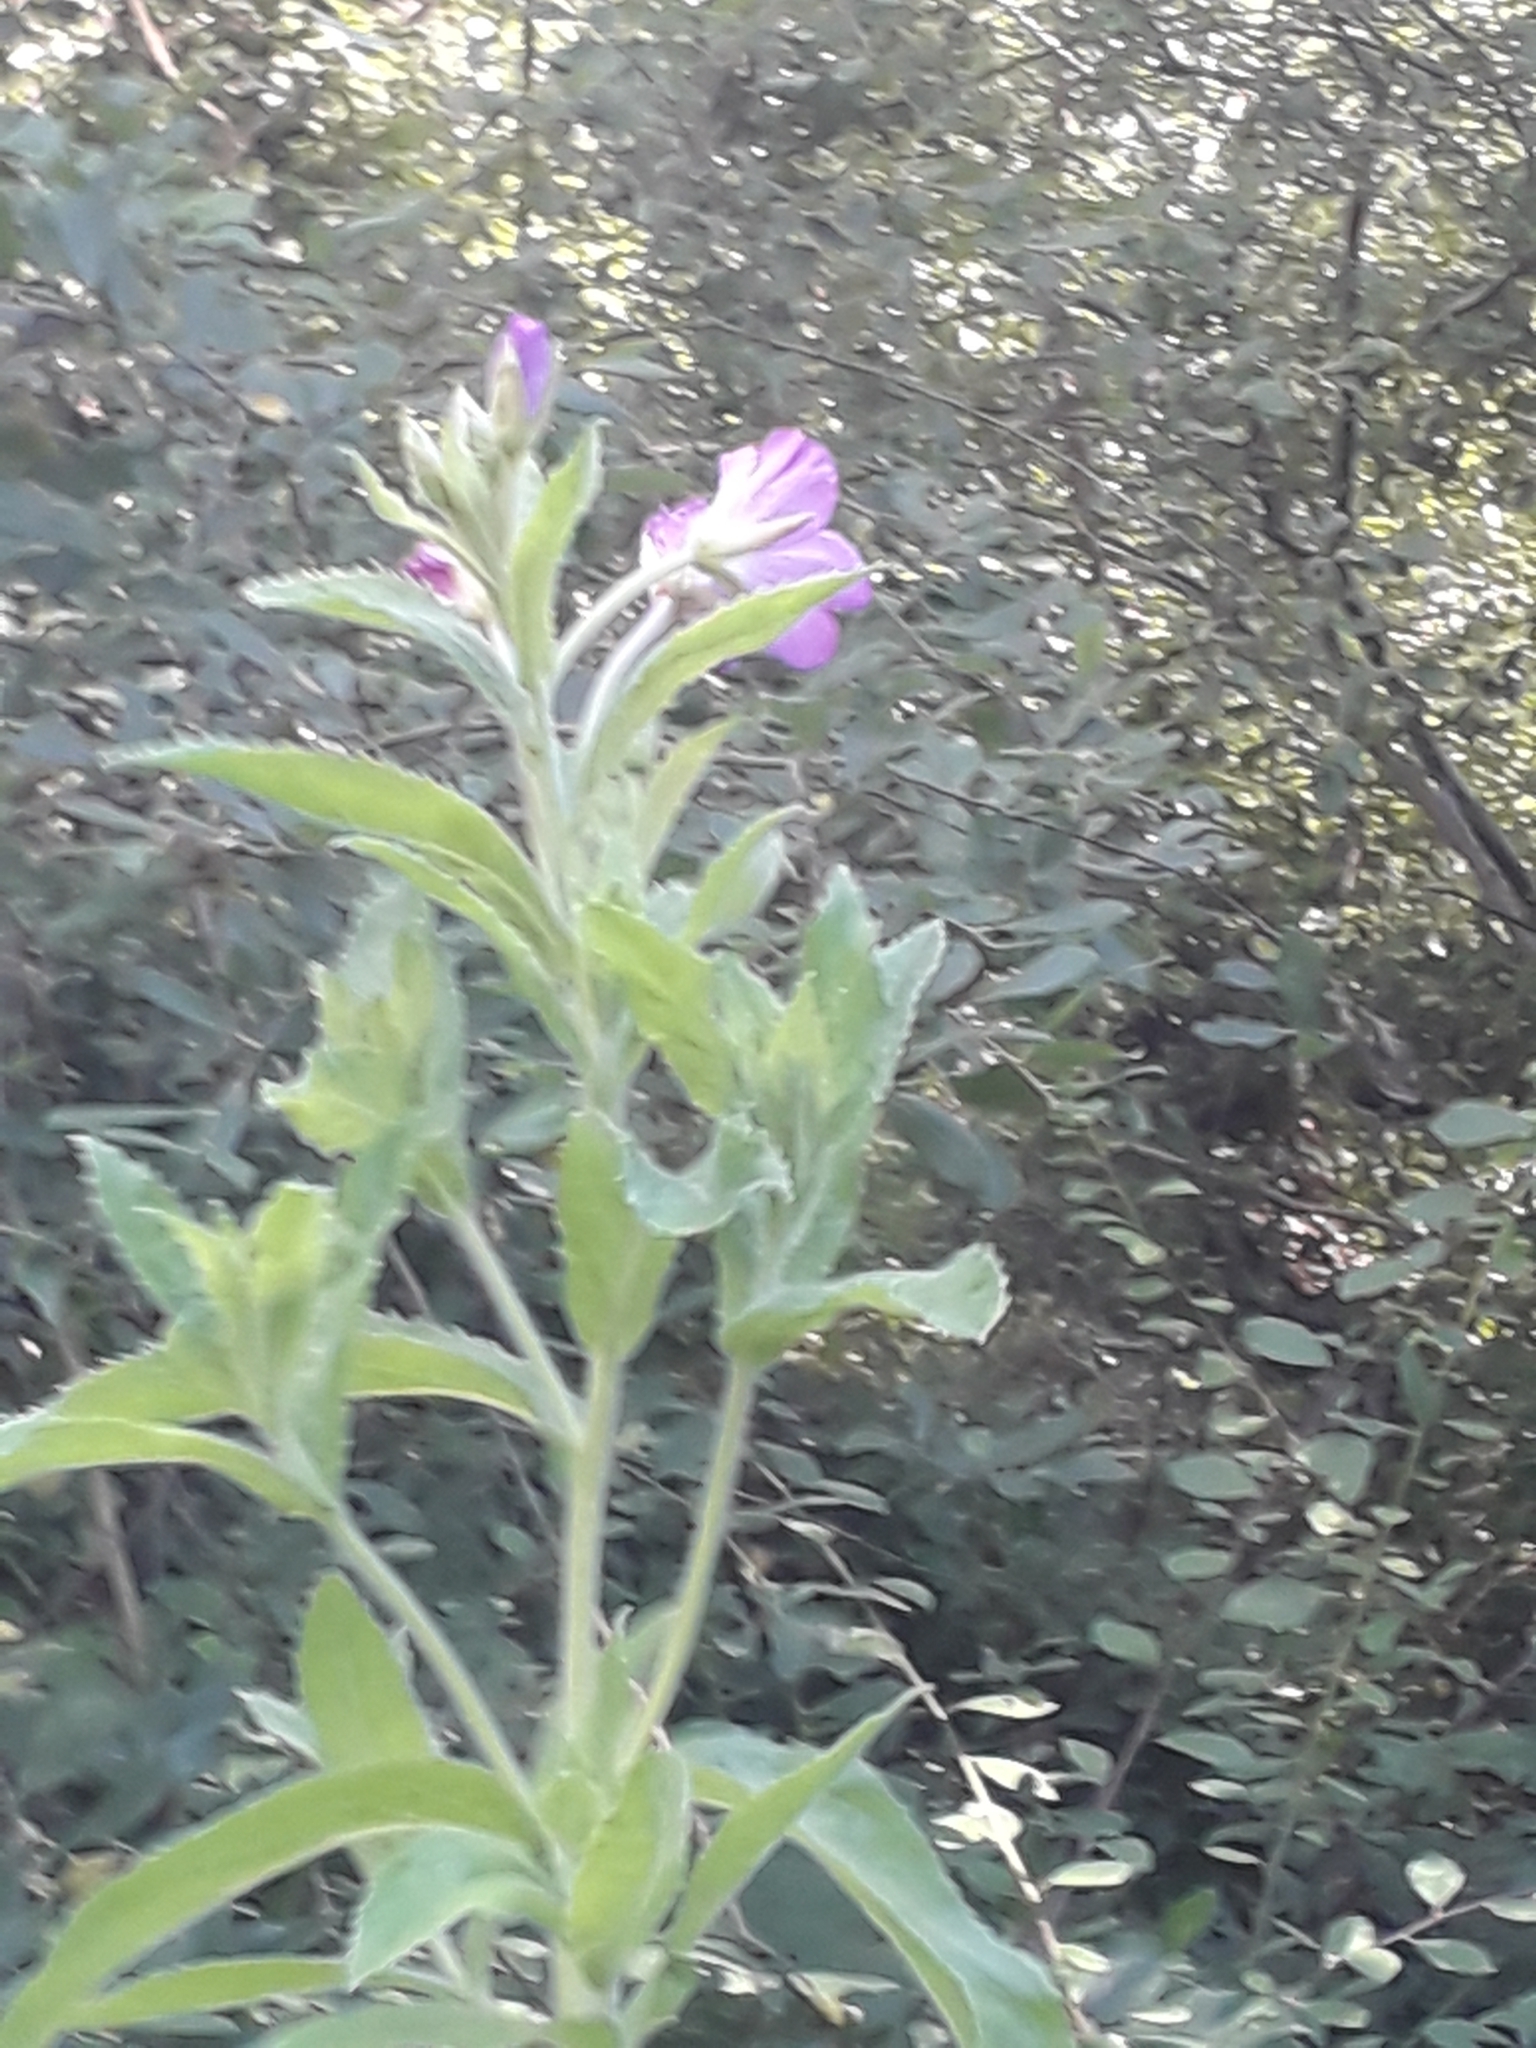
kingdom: Plantae
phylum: Tracheophyta
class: Magnoliopsida
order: Myrtales
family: Onagraceae
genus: Epilobium
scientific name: Epilobium hirsutum
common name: Great willowherb
